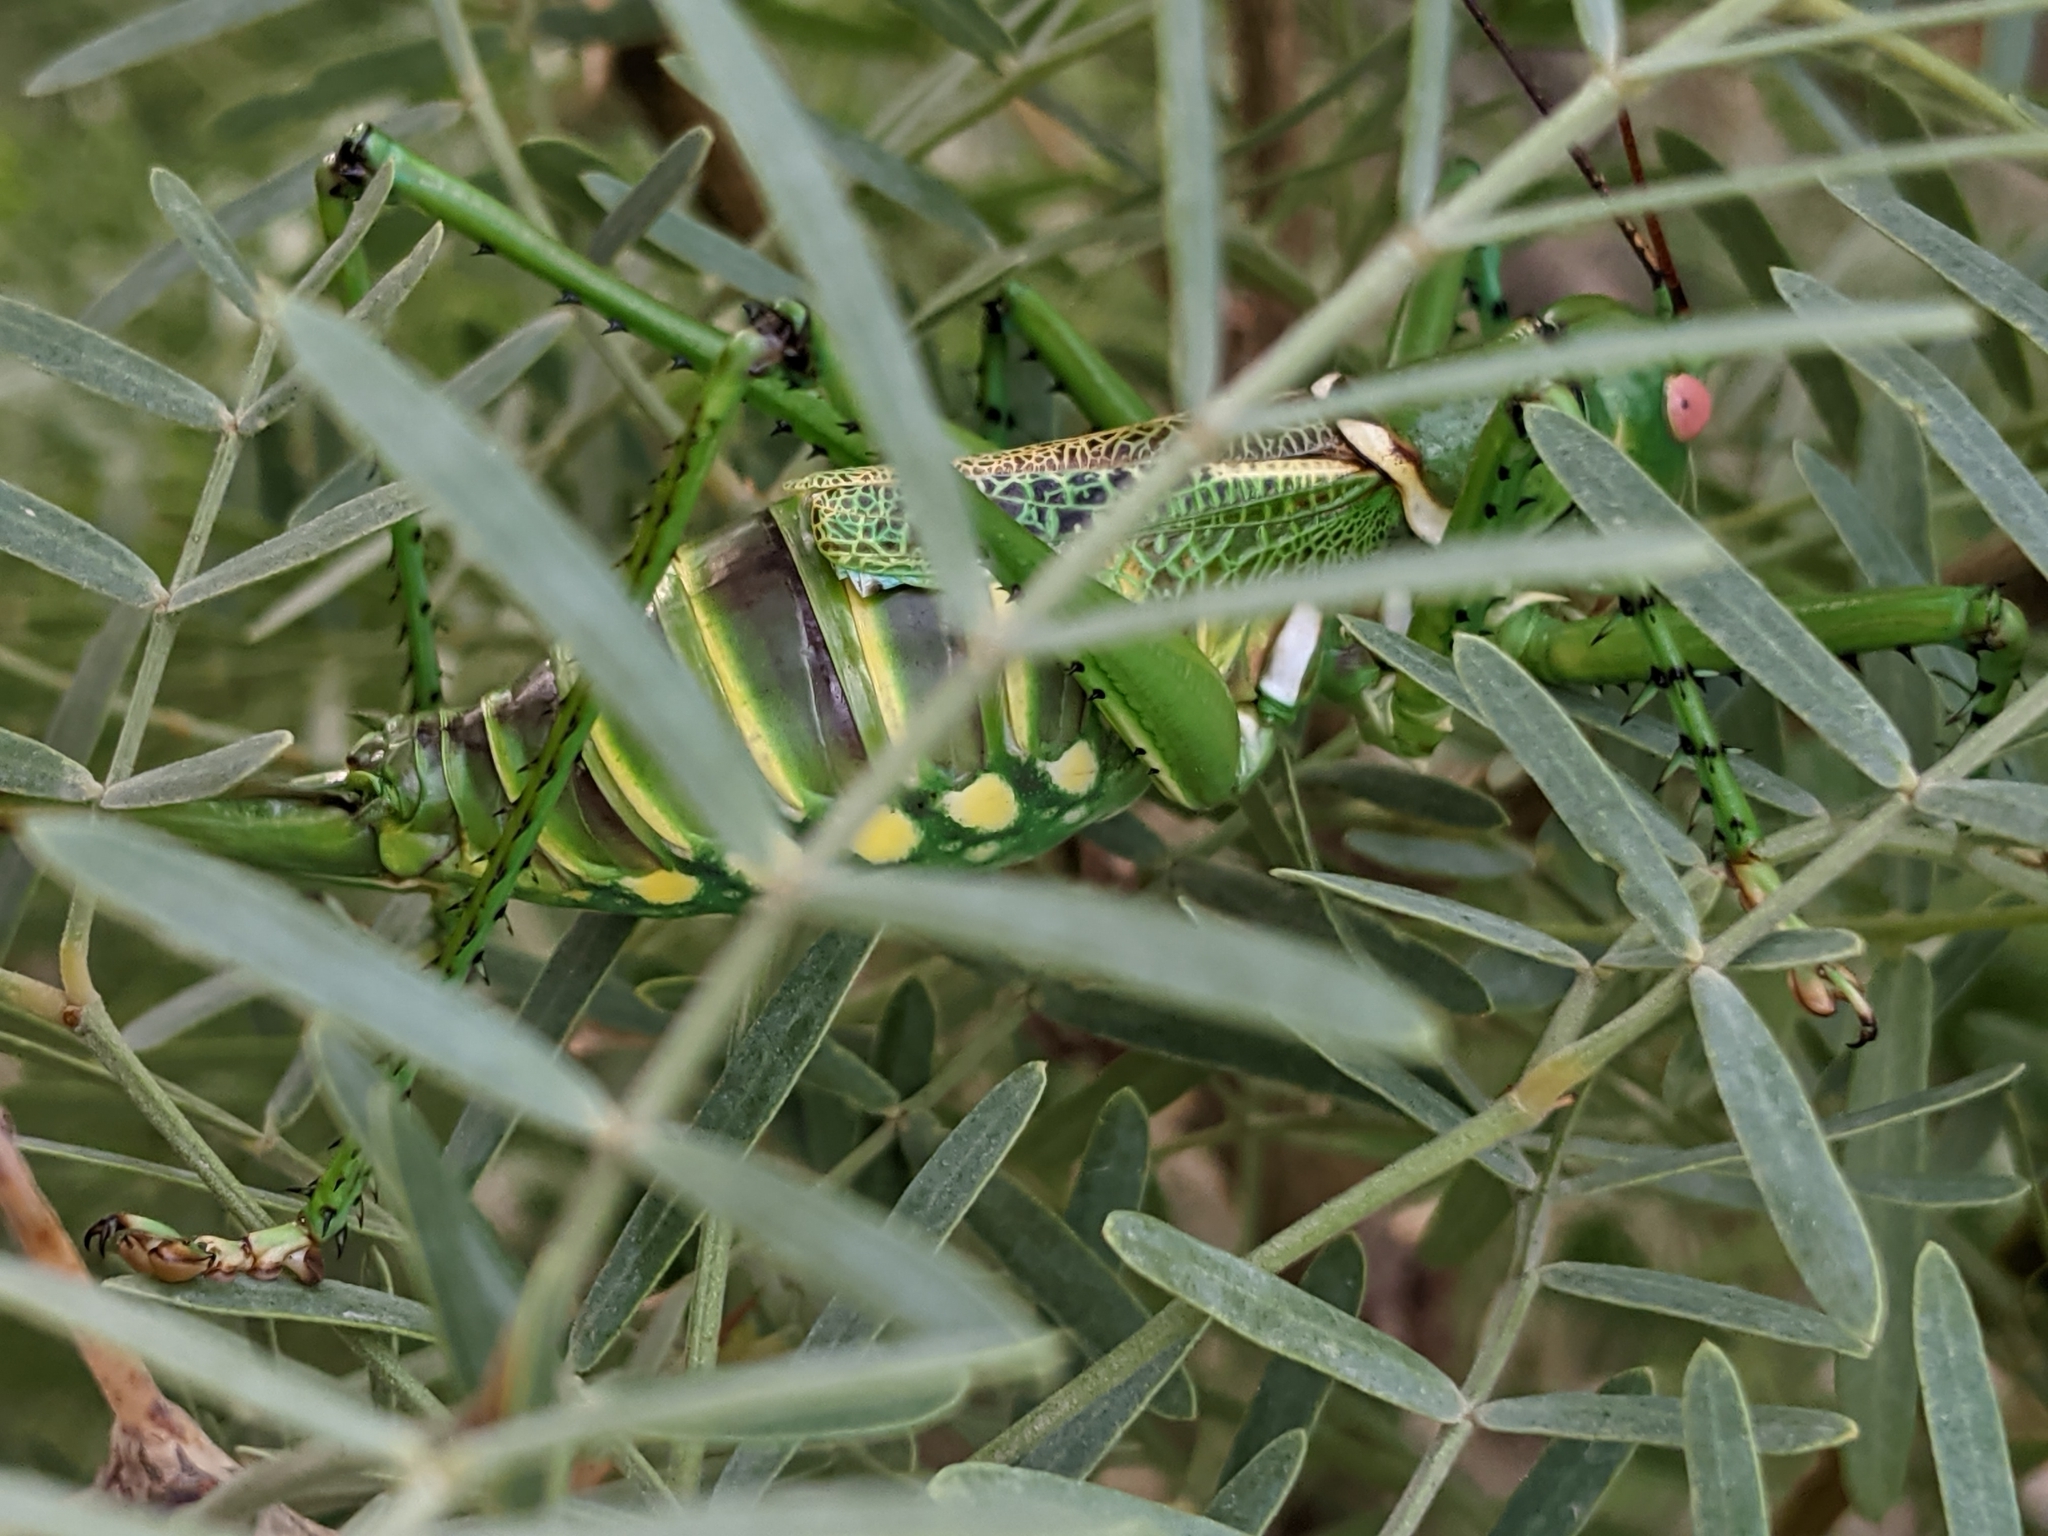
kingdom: Animalia
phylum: Arthropoda
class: Insecta
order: Orthoptera
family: Tettigoniidae
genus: Neobarrettia
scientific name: Neobarrettia spinosa
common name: Greater arid-land katydid
